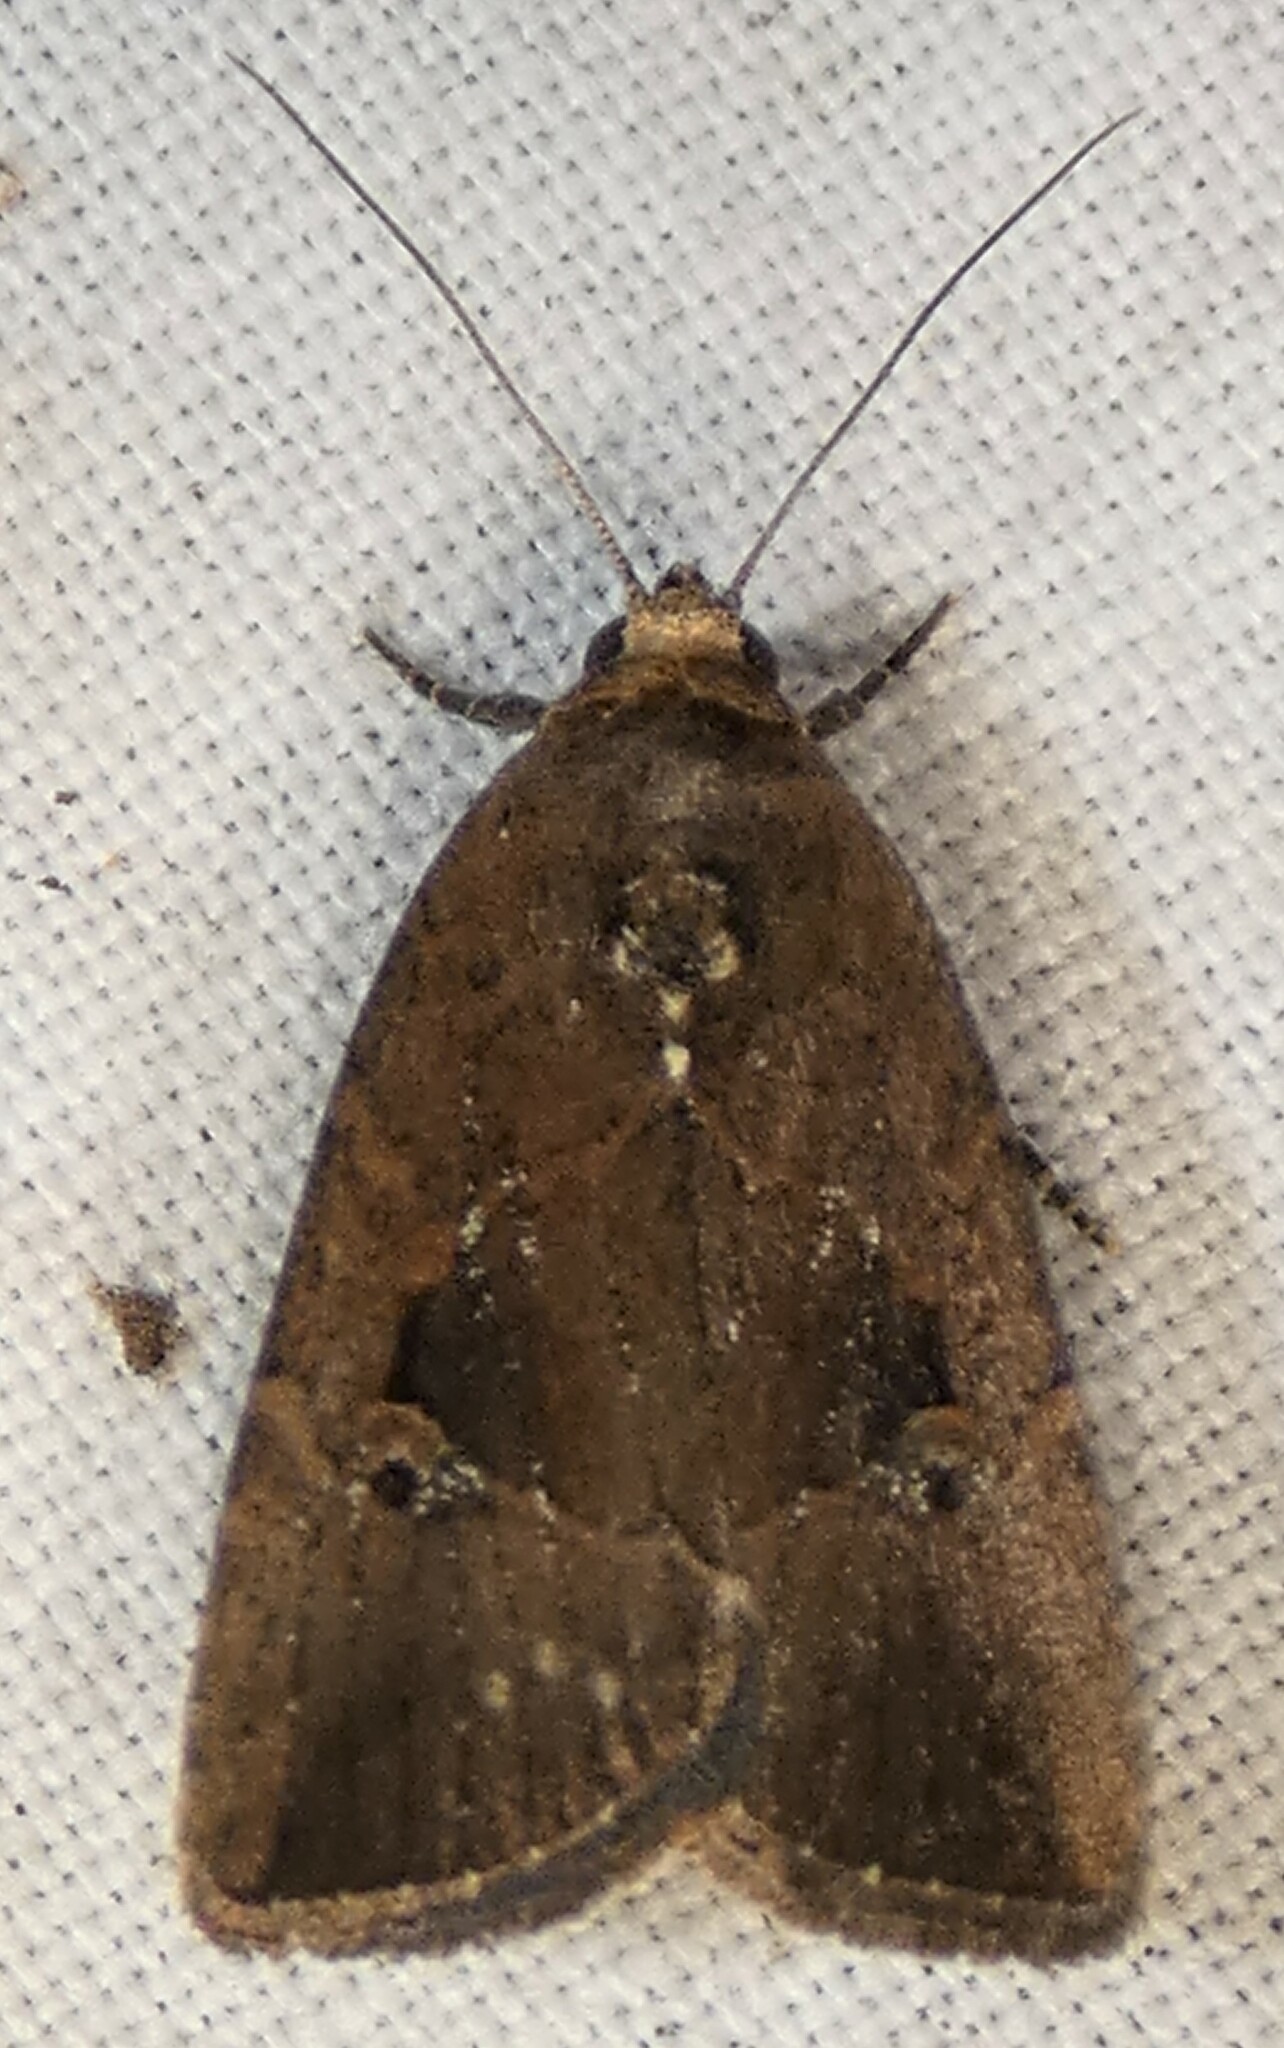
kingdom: Animalia
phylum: Arthropoda
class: Insecta
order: Lepidoptera
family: Noctuidae
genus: Elaphria
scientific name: Elaphria nucicolora
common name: Sugarcane midget moth
